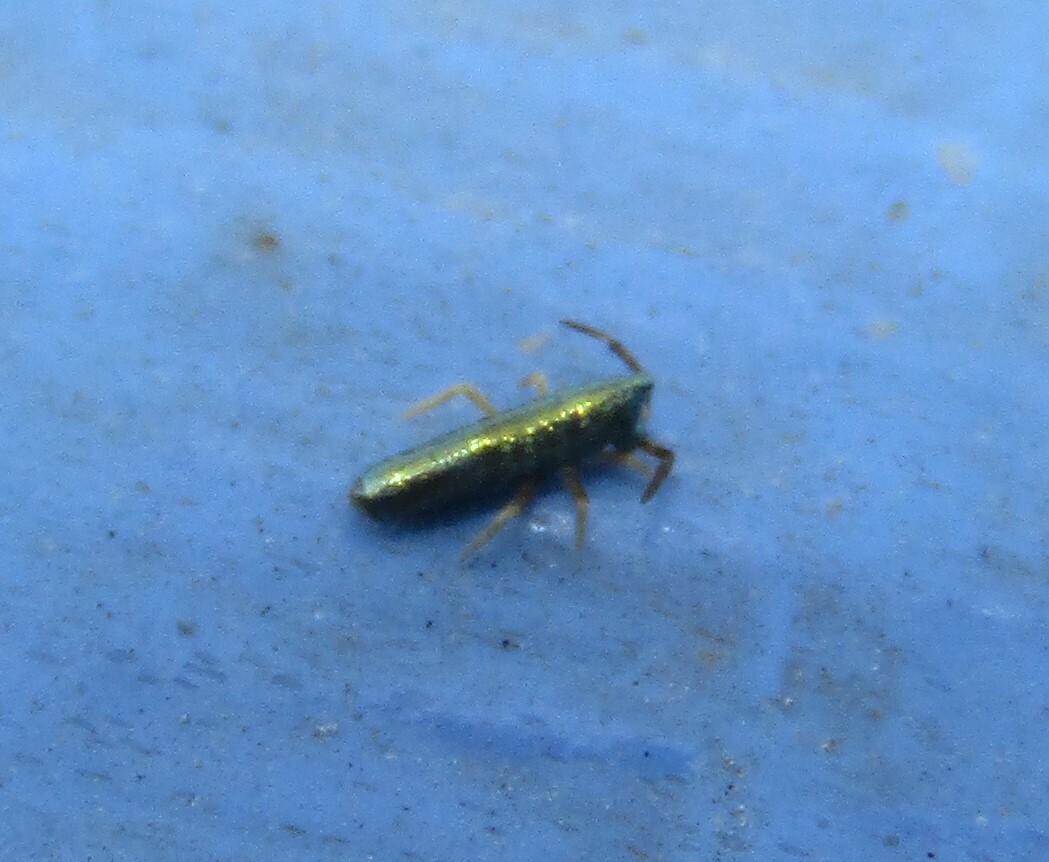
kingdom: Animalia
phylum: Arthropoda
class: Collembola
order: Entomobryomorpha
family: Entomobryidae
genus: Lepidocyrtus
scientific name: Lepidocyrtus paradoxus
